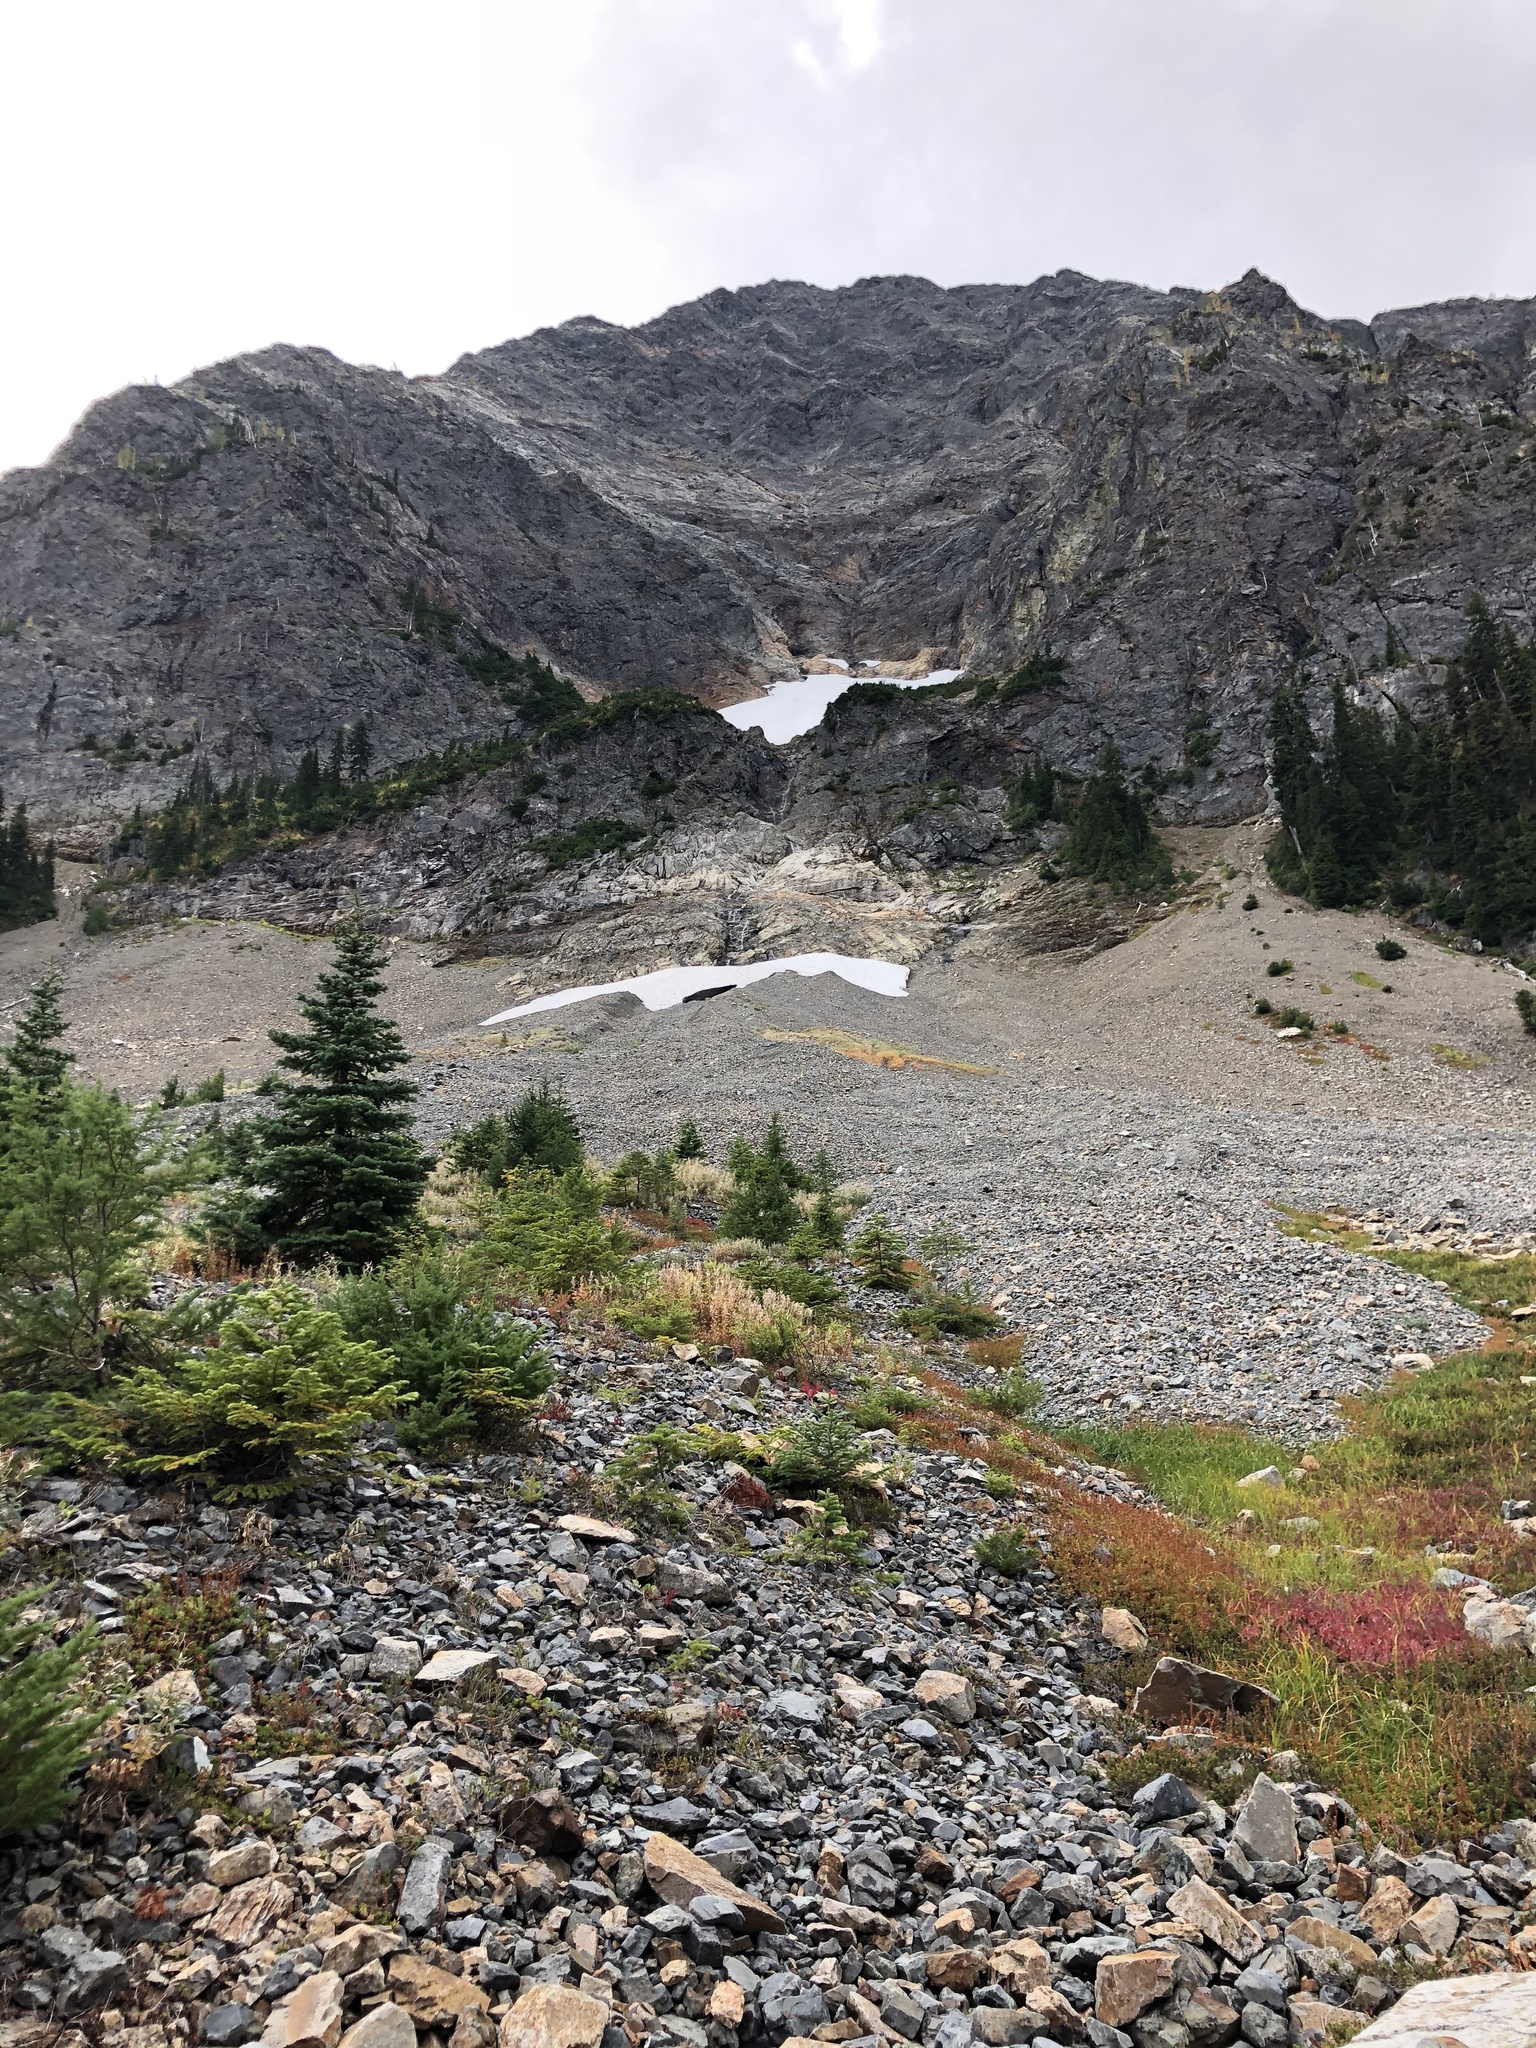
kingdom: Plantae
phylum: Tracheophyta
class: Pinopsida
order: Pinales
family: Pinaceae
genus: Abies
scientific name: Abies lasiocarpa
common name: Subalpine fir
